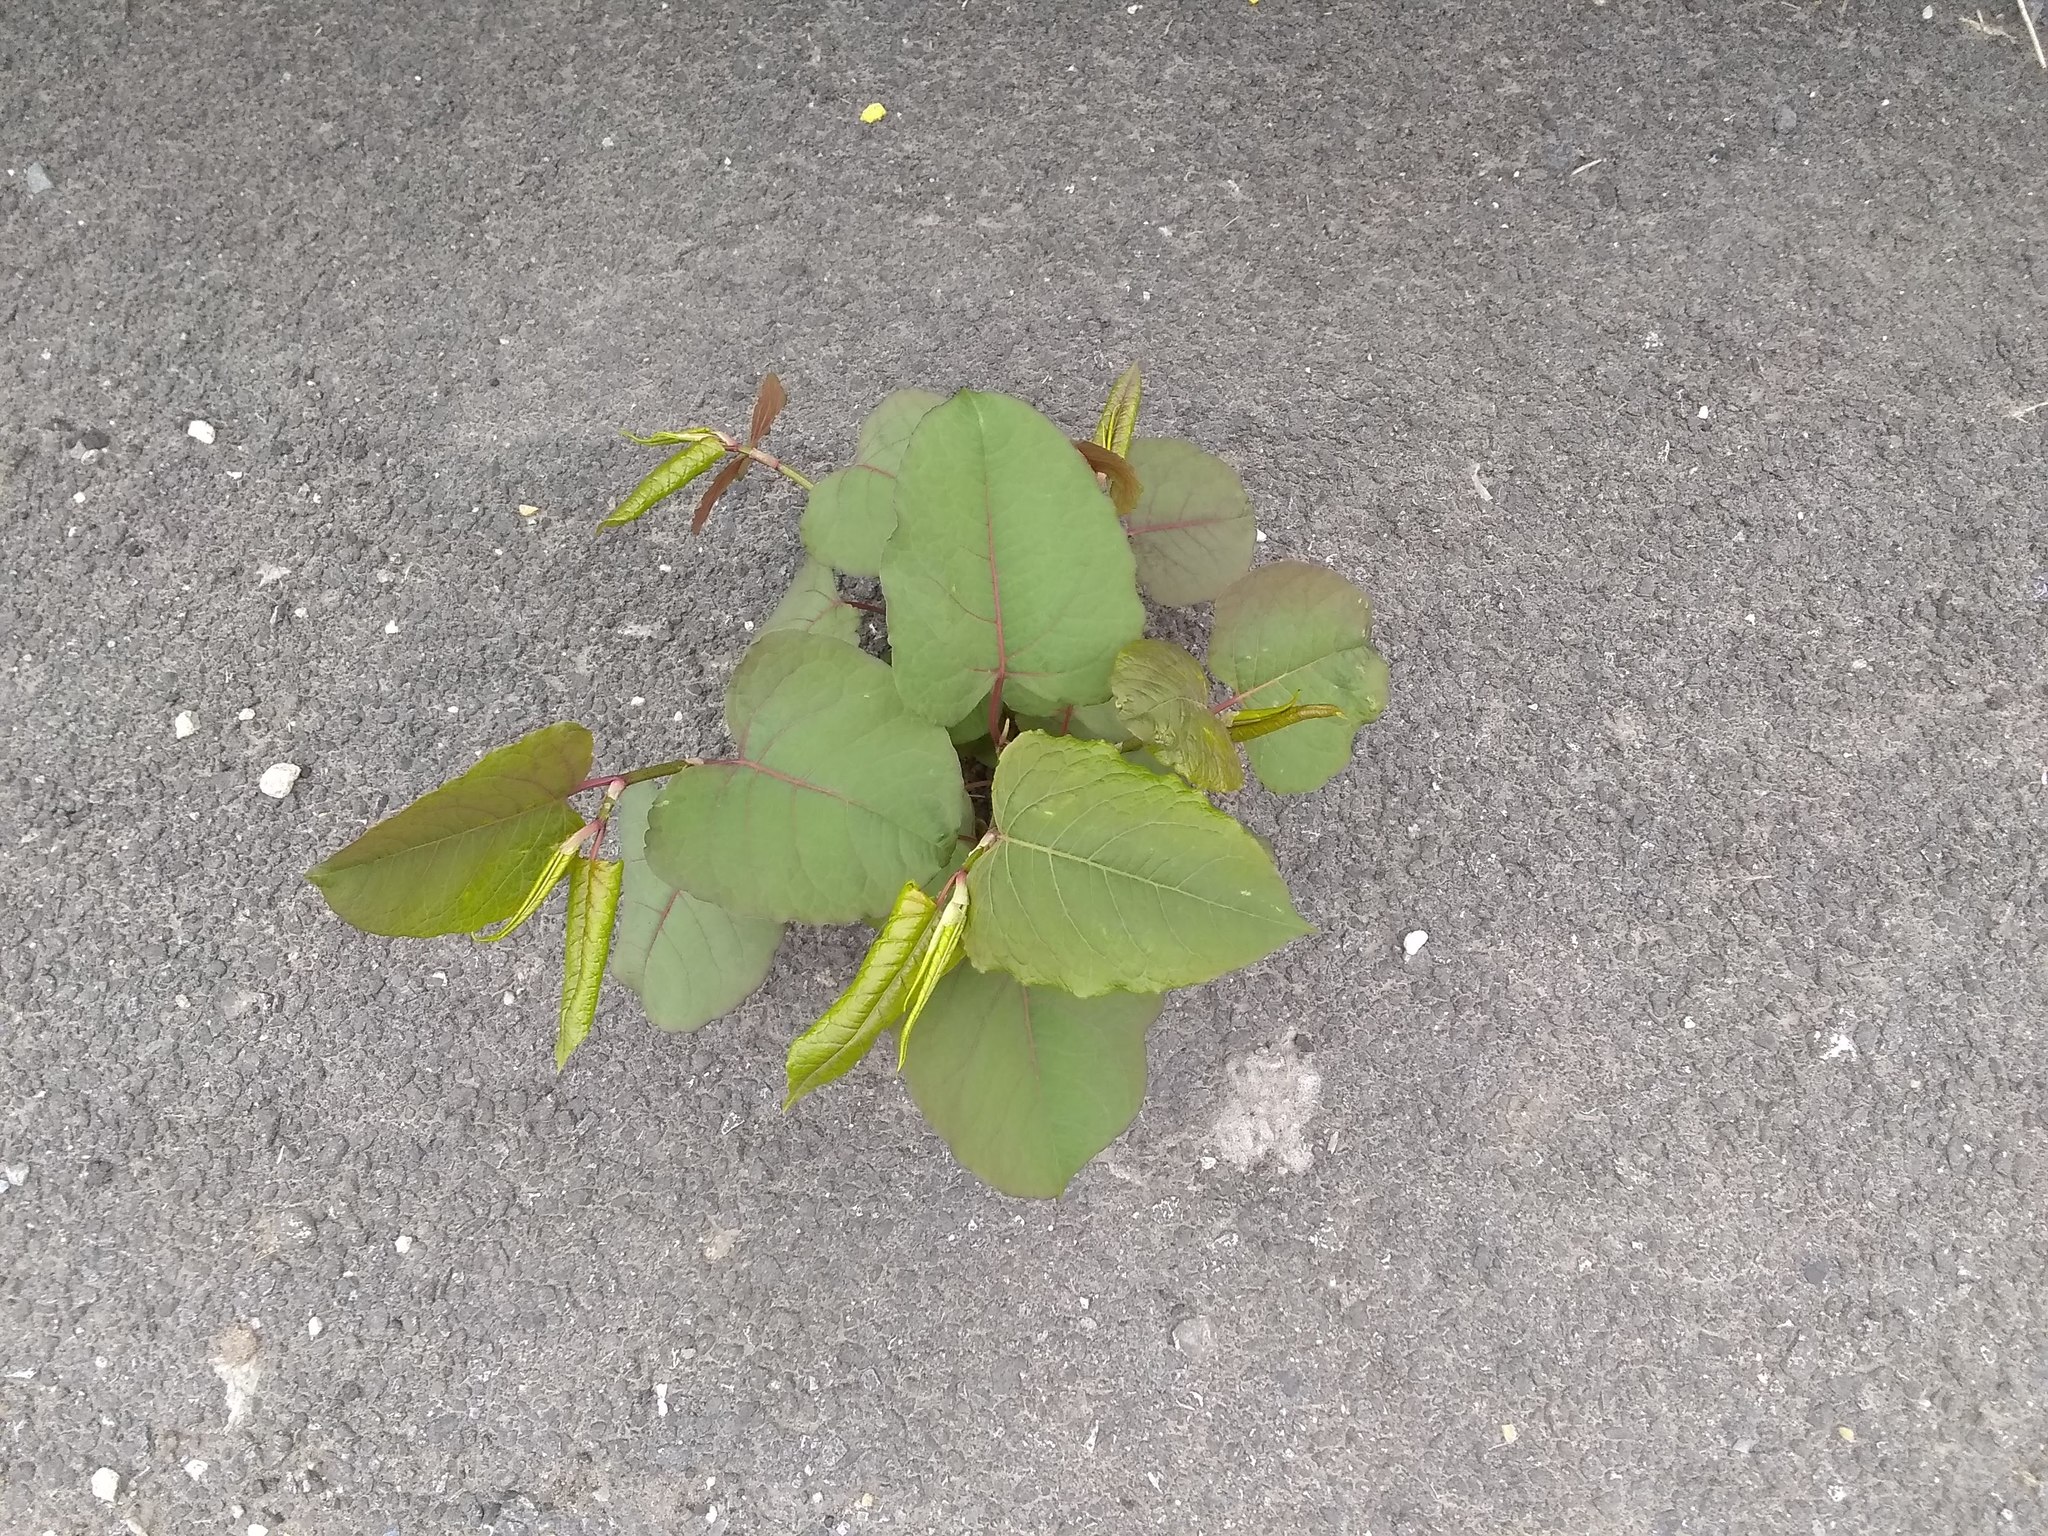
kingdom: Plantae
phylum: Tracheophyta
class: Magnoliopsida
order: Caryophyllales
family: Polygonaceae
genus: Reynoutria
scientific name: Reynoutria japonica
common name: Japanese knotweed
